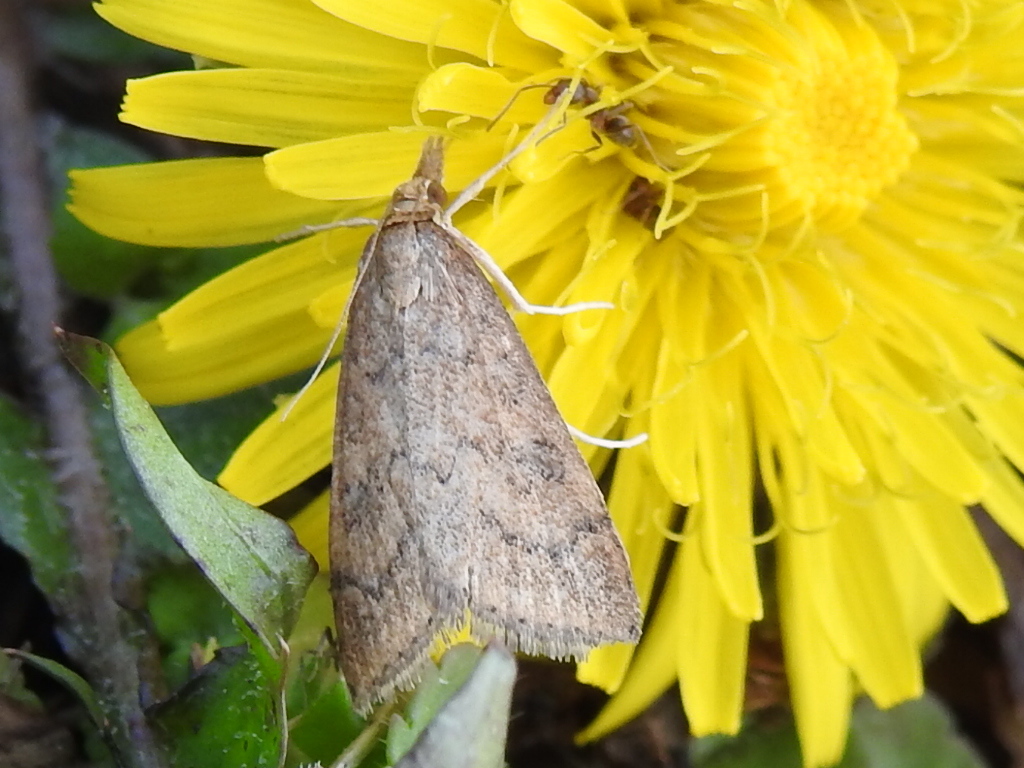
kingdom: Animalia
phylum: Arthropoda
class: Insecta
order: Lepidoptera
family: Crambidae
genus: Udea
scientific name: Udea rubigalis
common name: Celery leaftier moth
